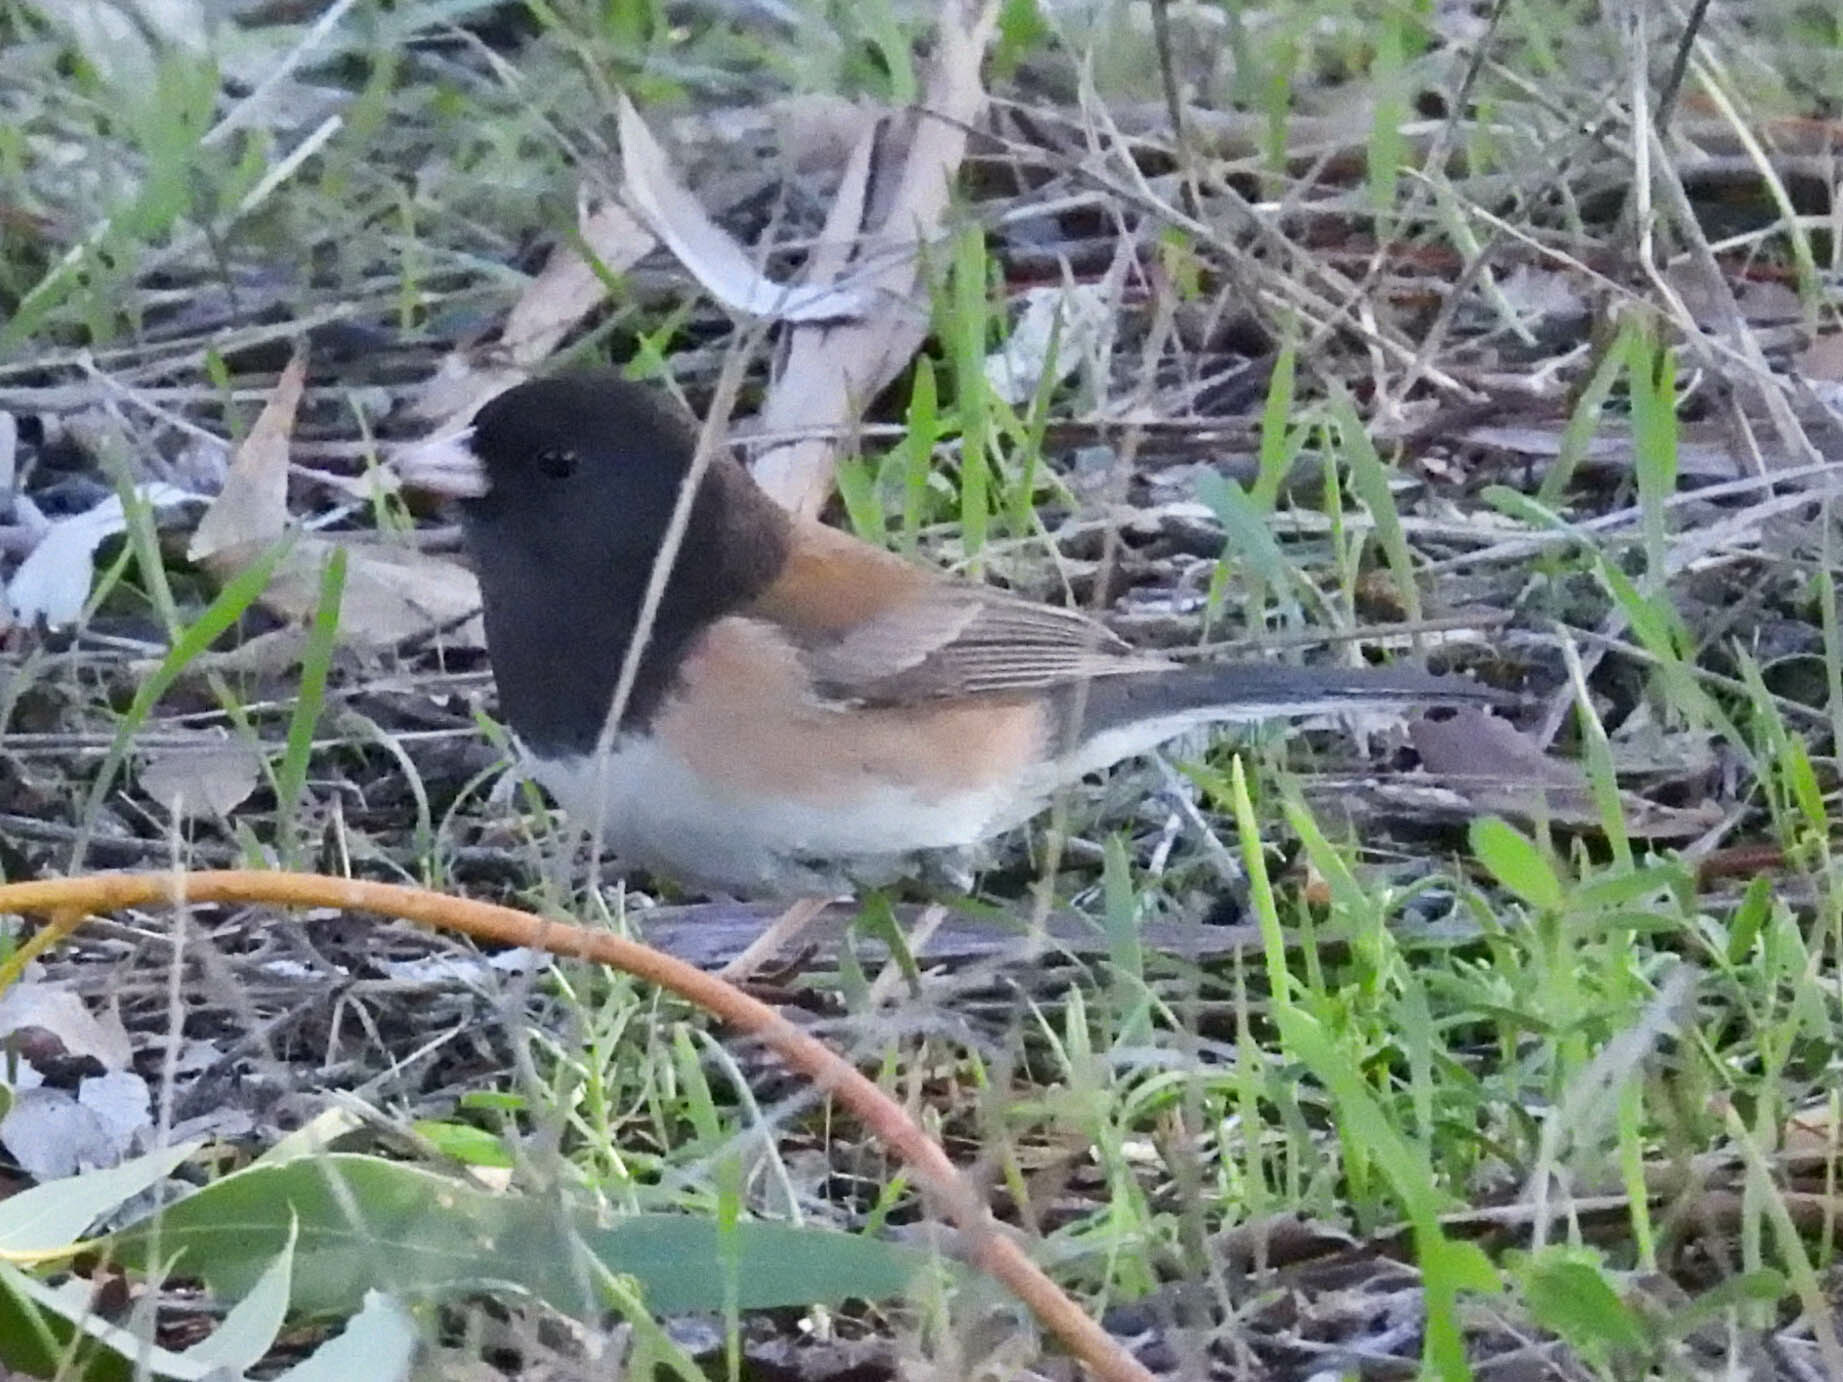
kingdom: Animalia
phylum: Chordata
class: Aves
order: Passeriformes
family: Passerellidae
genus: Junco
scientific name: Junco hyemalis
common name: Dark-eyed junco
